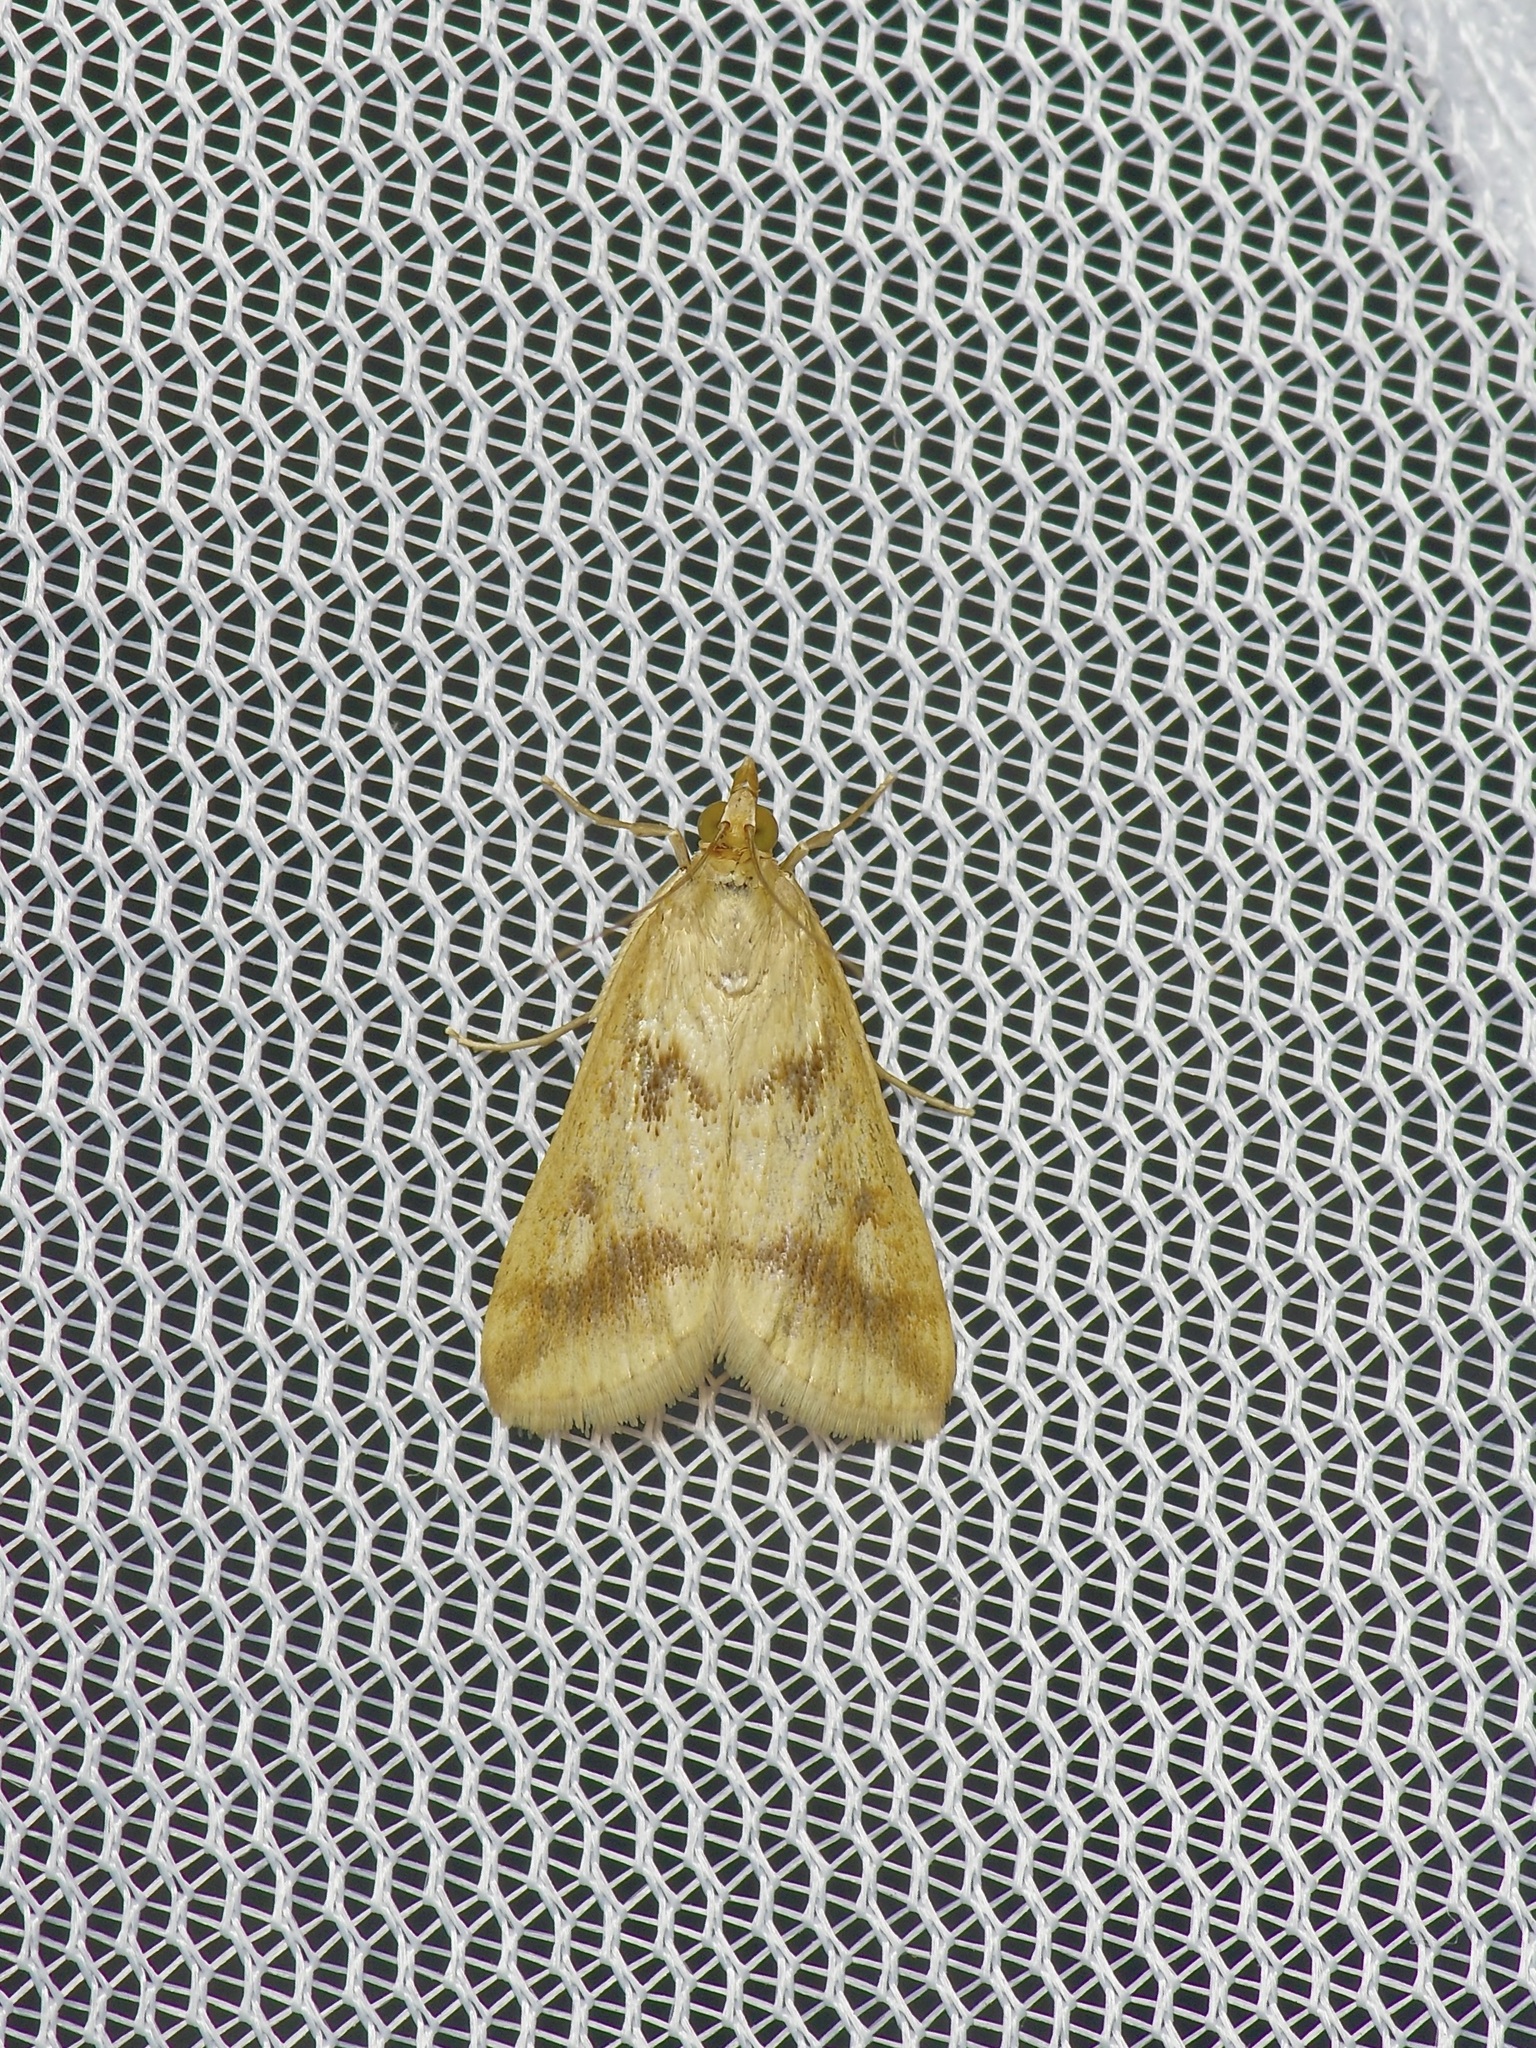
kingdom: Animalia
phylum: Arthropoda
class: Insecta
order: Lepidoptera
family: Crambidae
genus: Achyra
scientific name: Achyra bifidalis
